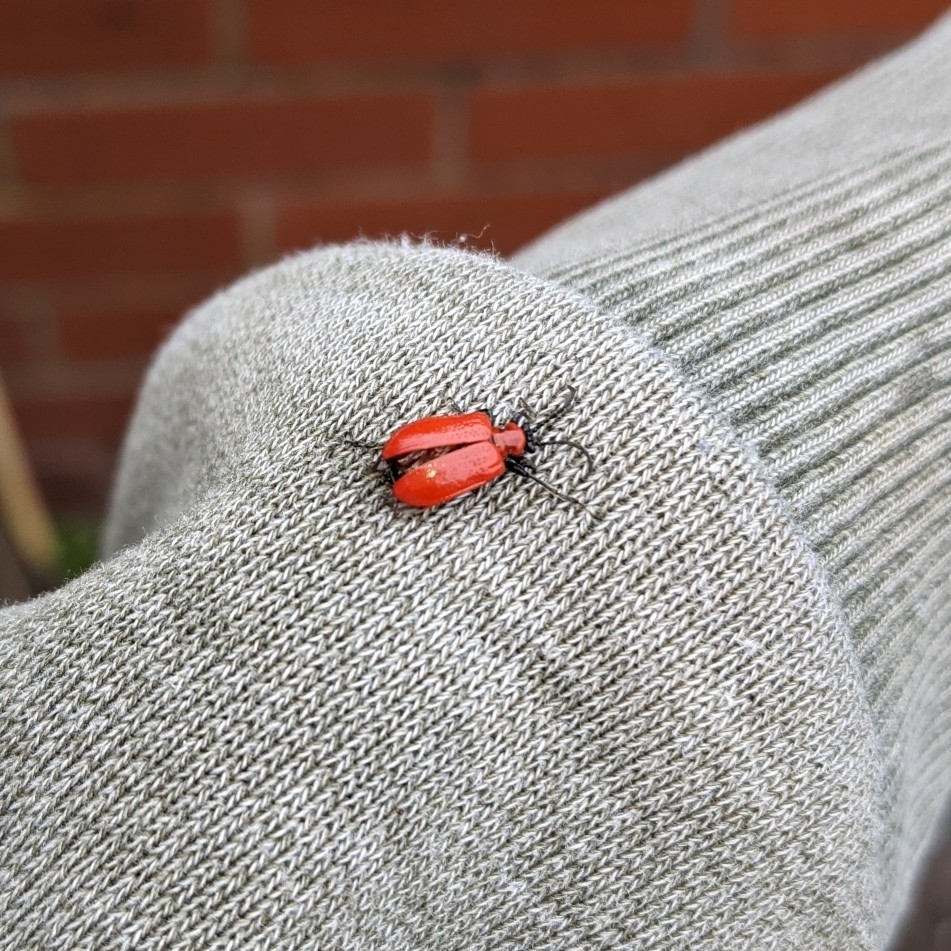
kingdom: Animalia
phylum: Arthropoda
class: Insecta
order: Coleoptera
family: Chrysomelidae
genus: Lilioceris
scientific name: Lilioceris lilii
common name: Lily beetle
